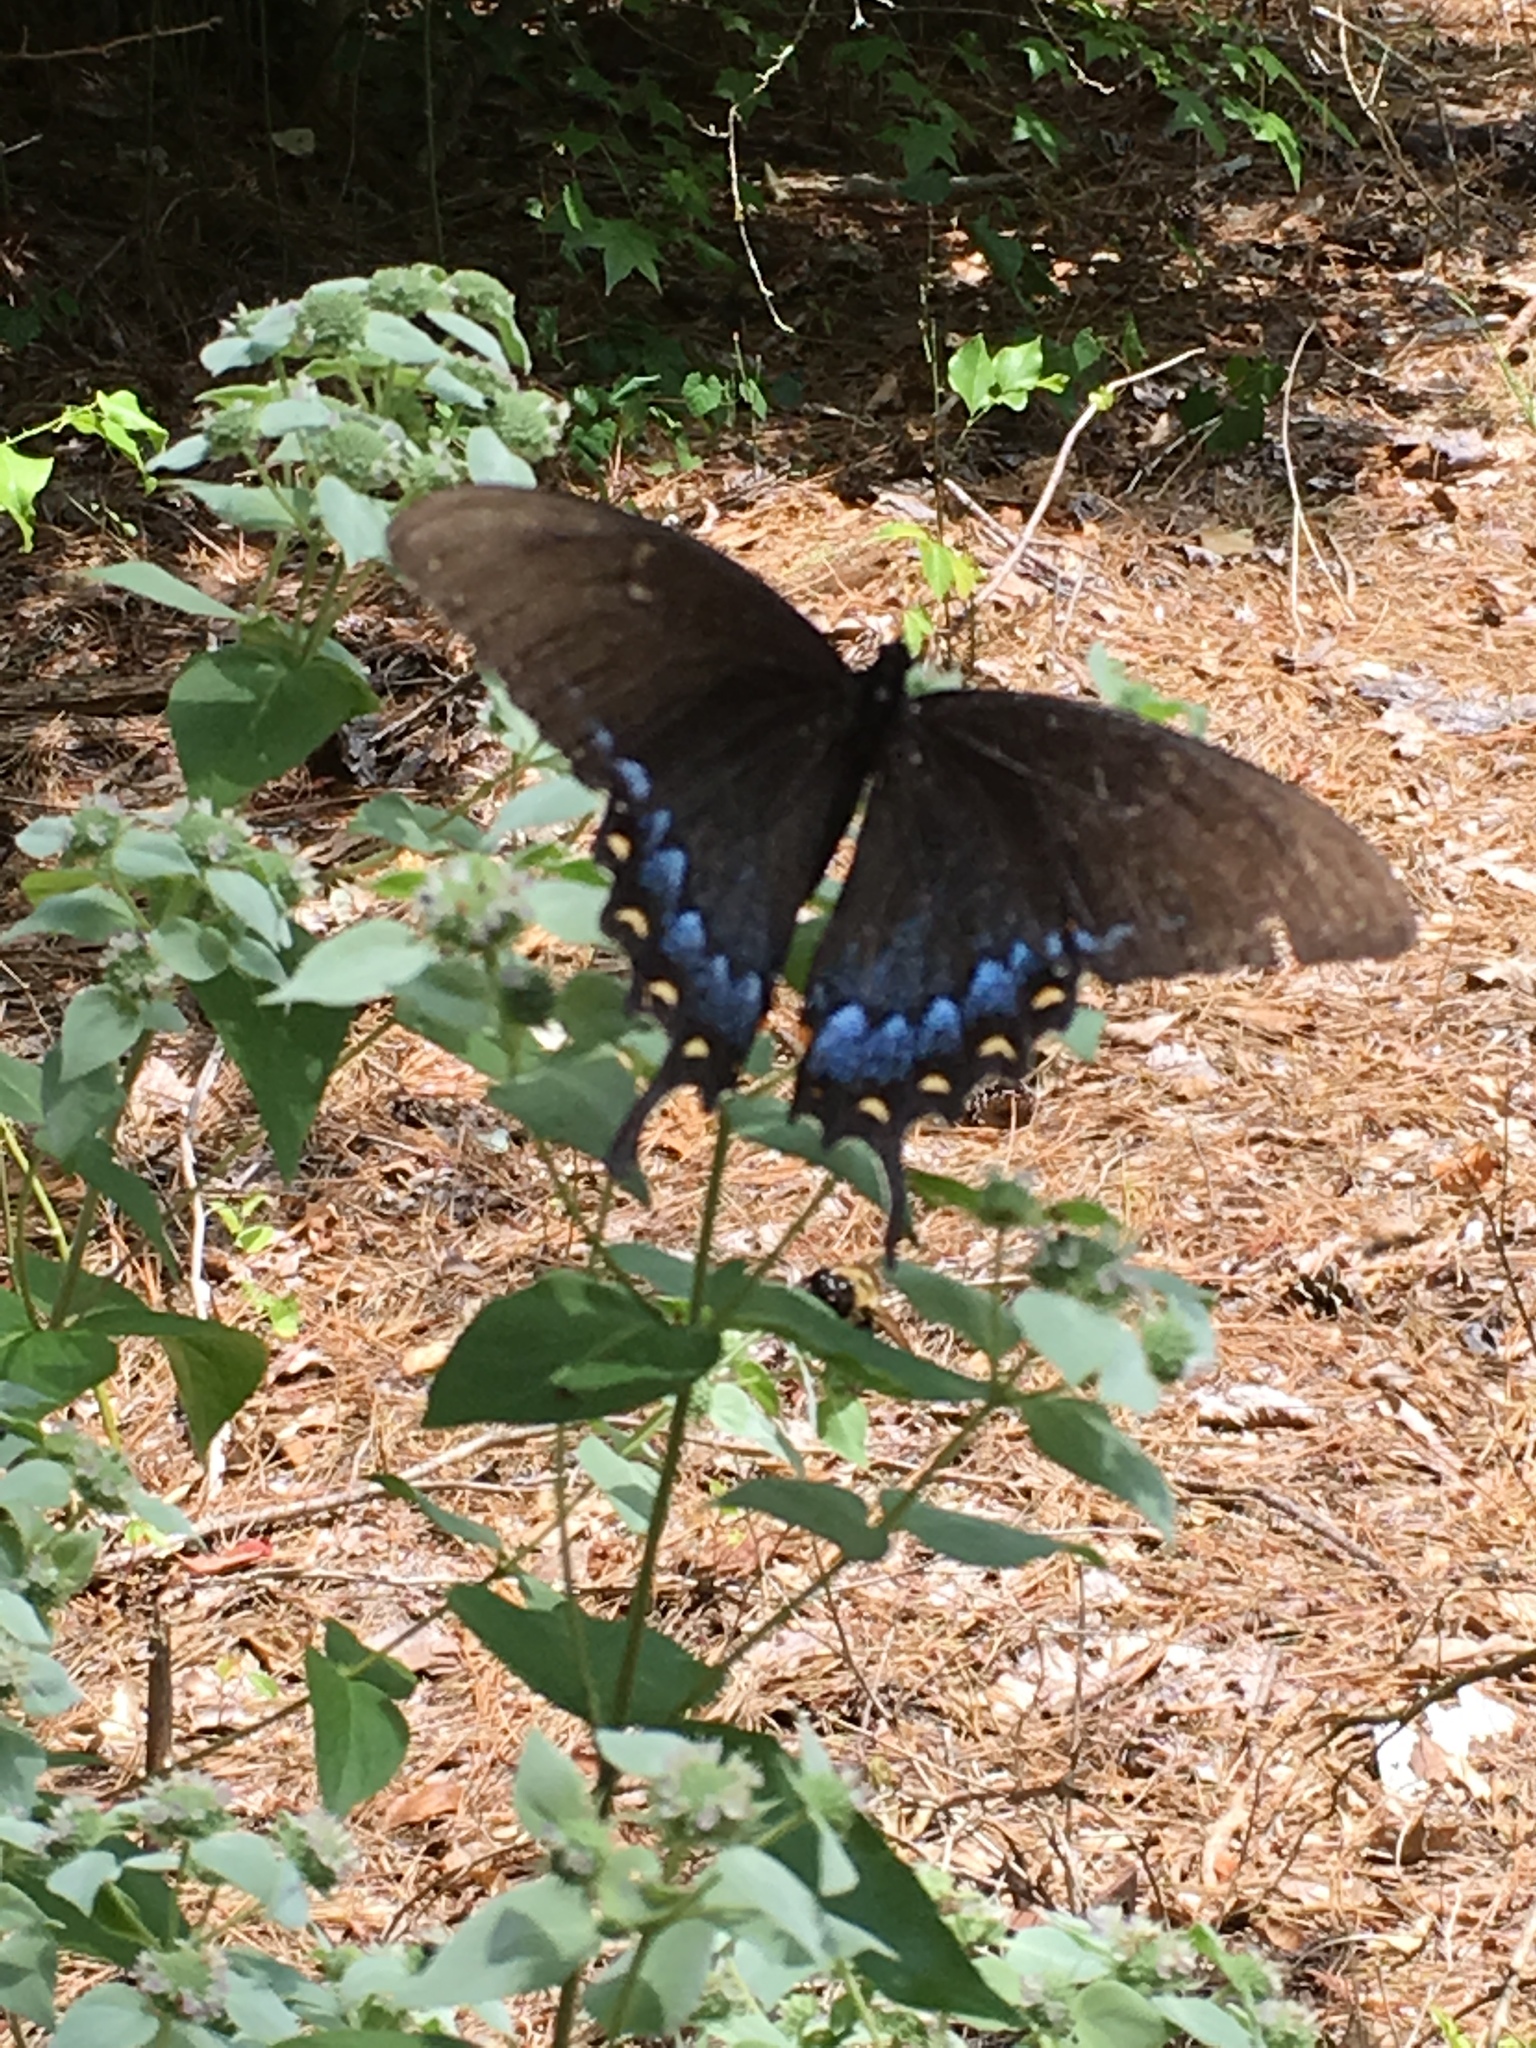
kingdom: Animalia
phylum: Arthropoda
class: Insecta
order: Lepidoptera
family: Papilionidae
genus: Papilio
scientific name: Papilio glaucus
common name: Tiger swallowtail
